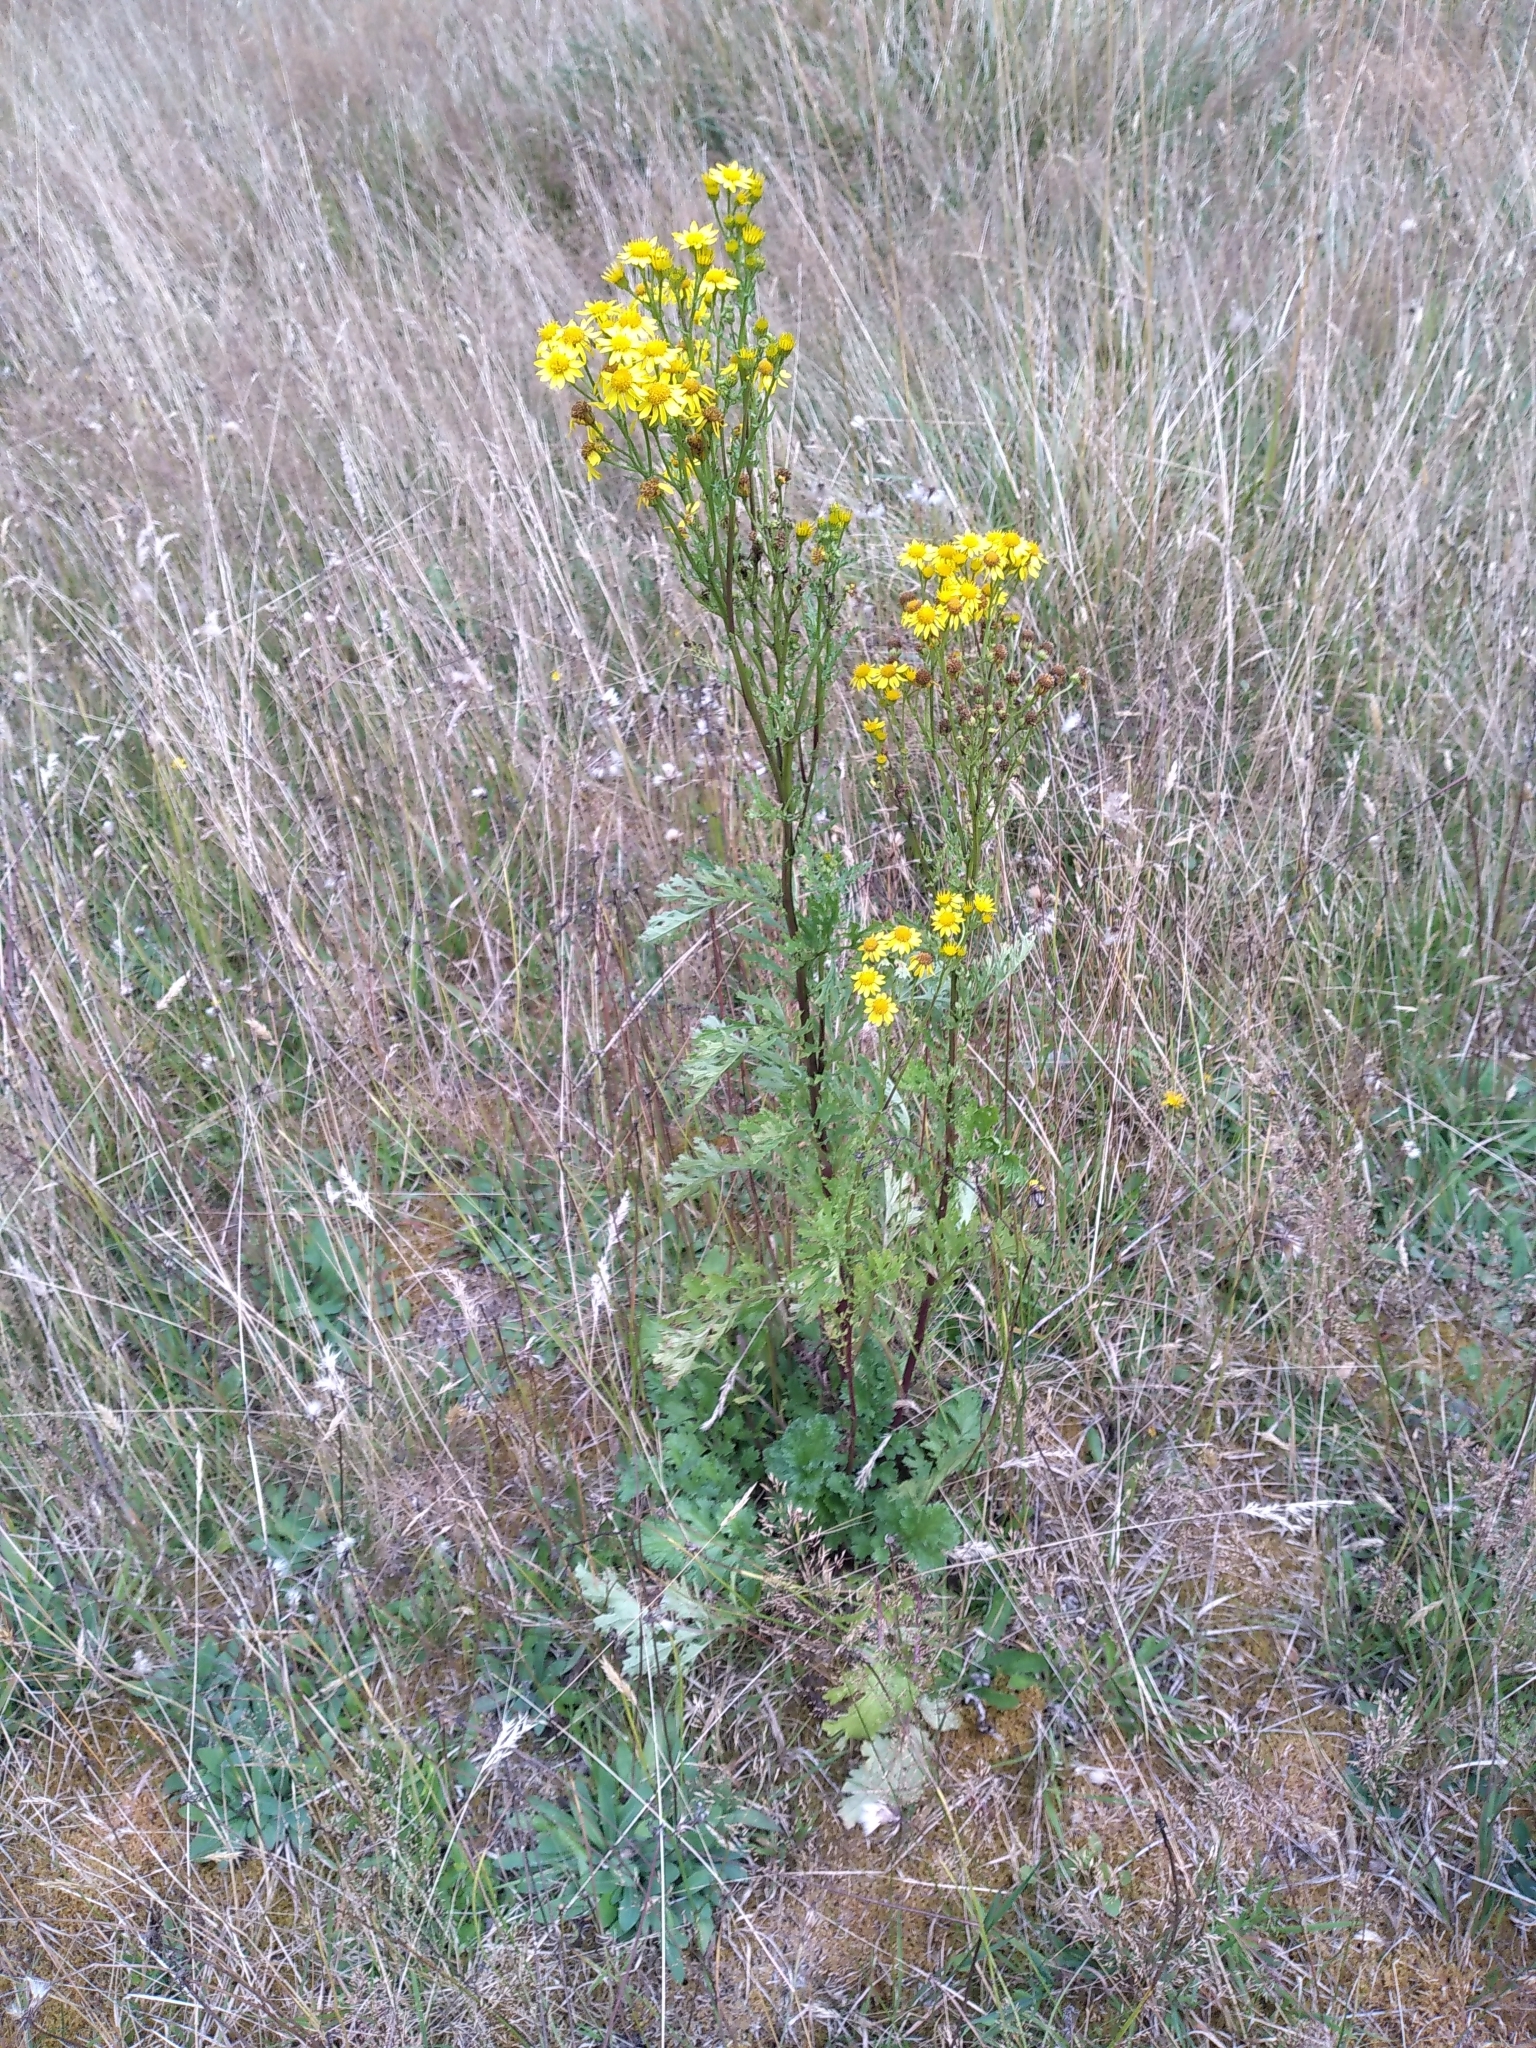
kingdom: Plantae
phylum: Tracheophyta
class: Magnoliopsida
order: Asterales
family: Asteraceae
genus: Jacobaea
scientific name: Jacobaea vulgaris
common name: Stinking willie
